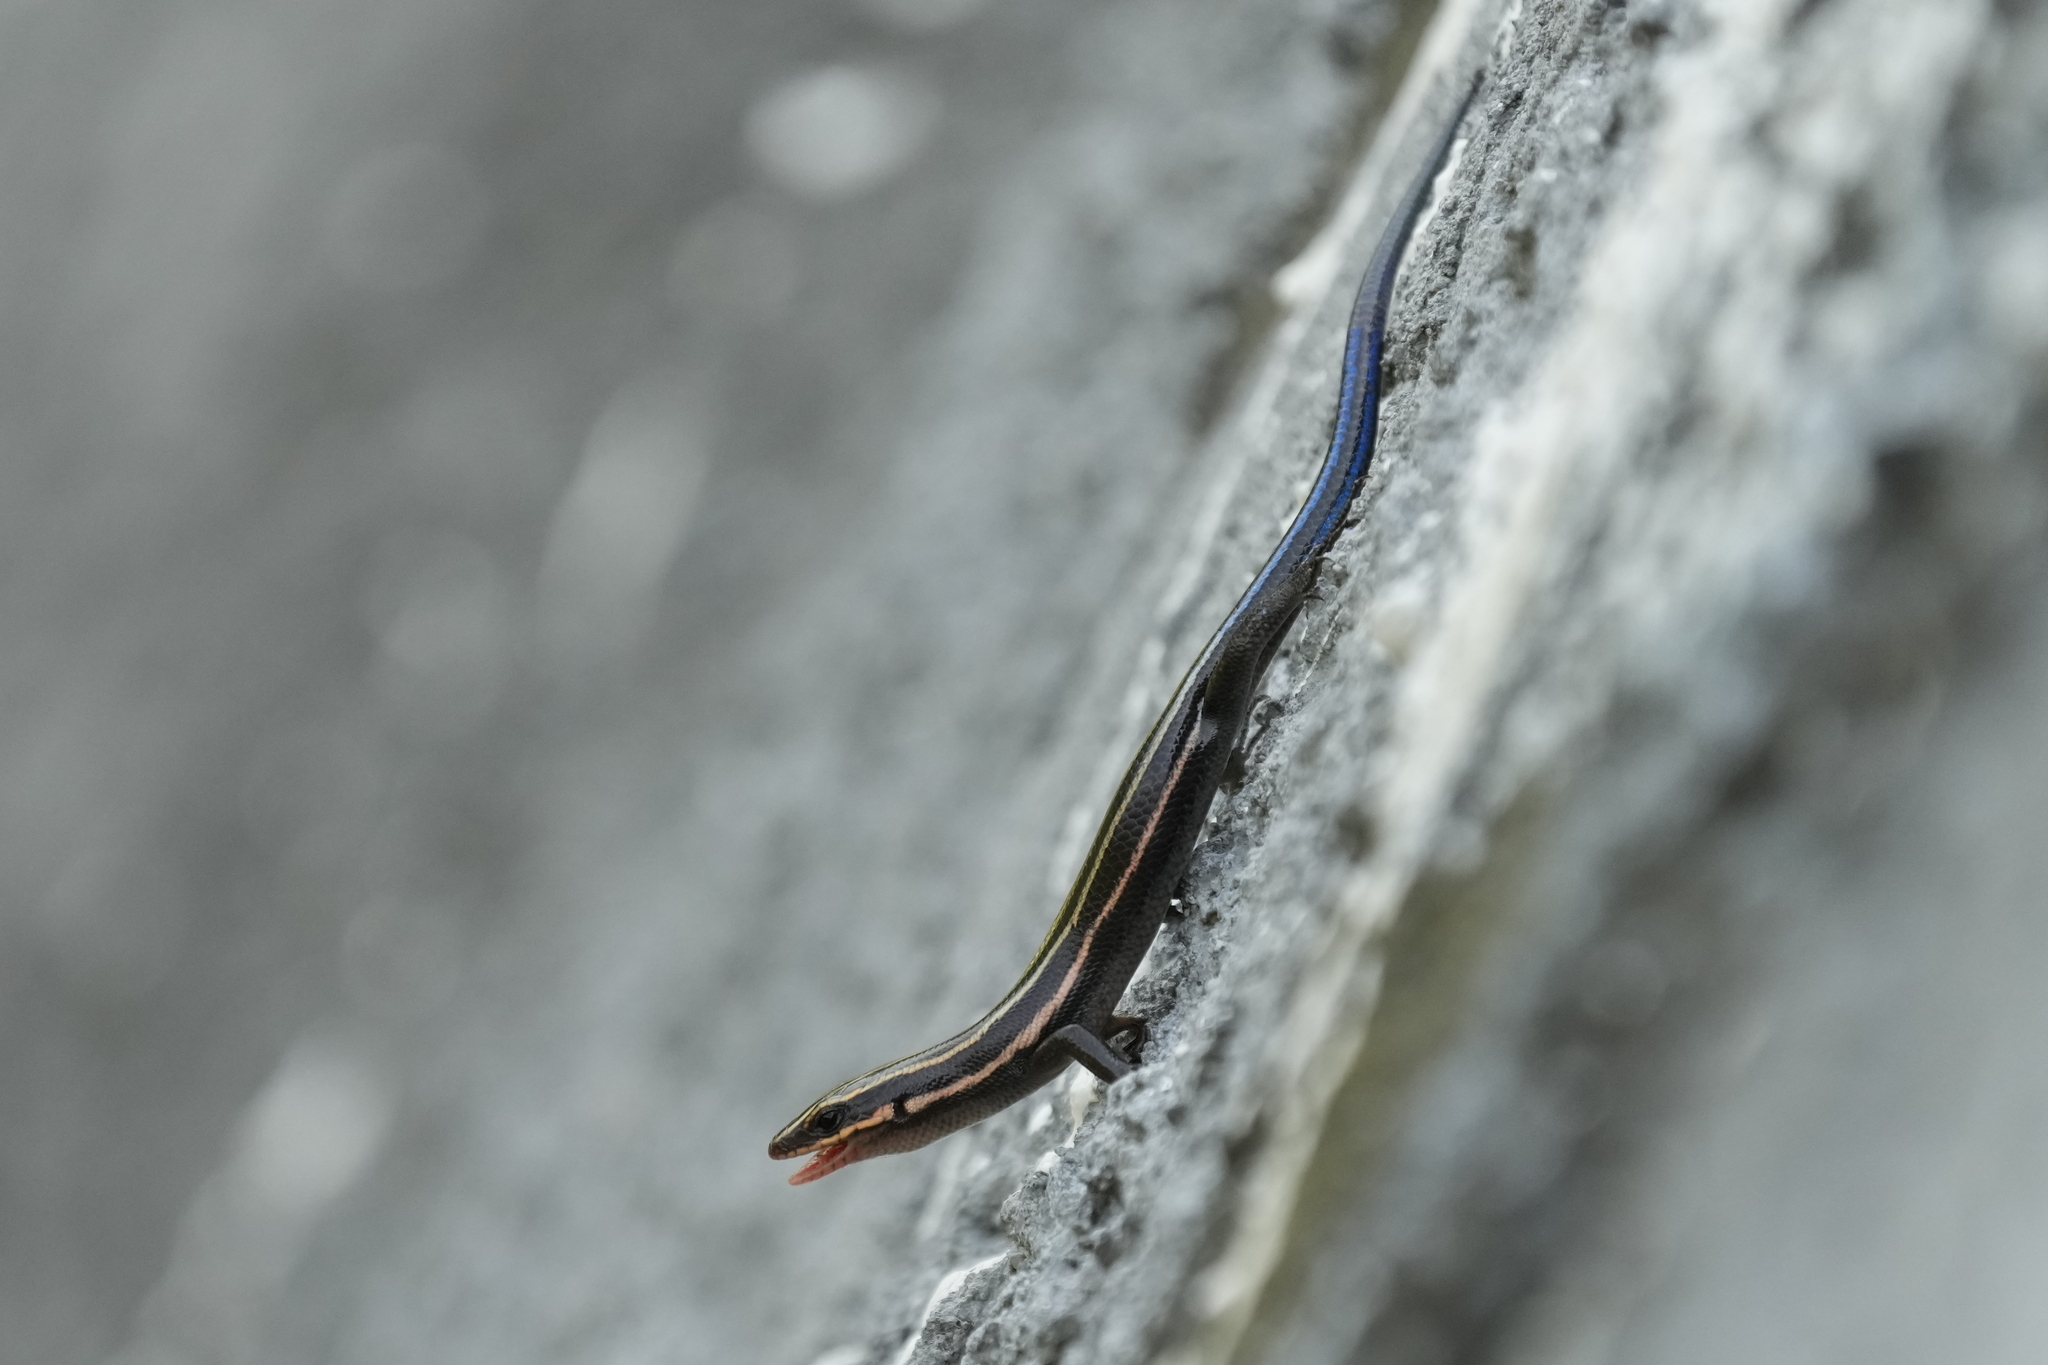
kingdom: Animalia
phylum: Chordata
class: Squamata
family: Scincidae
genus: Plestiodon
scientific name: Plestiodon fasciatus
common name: Five-lined skink
